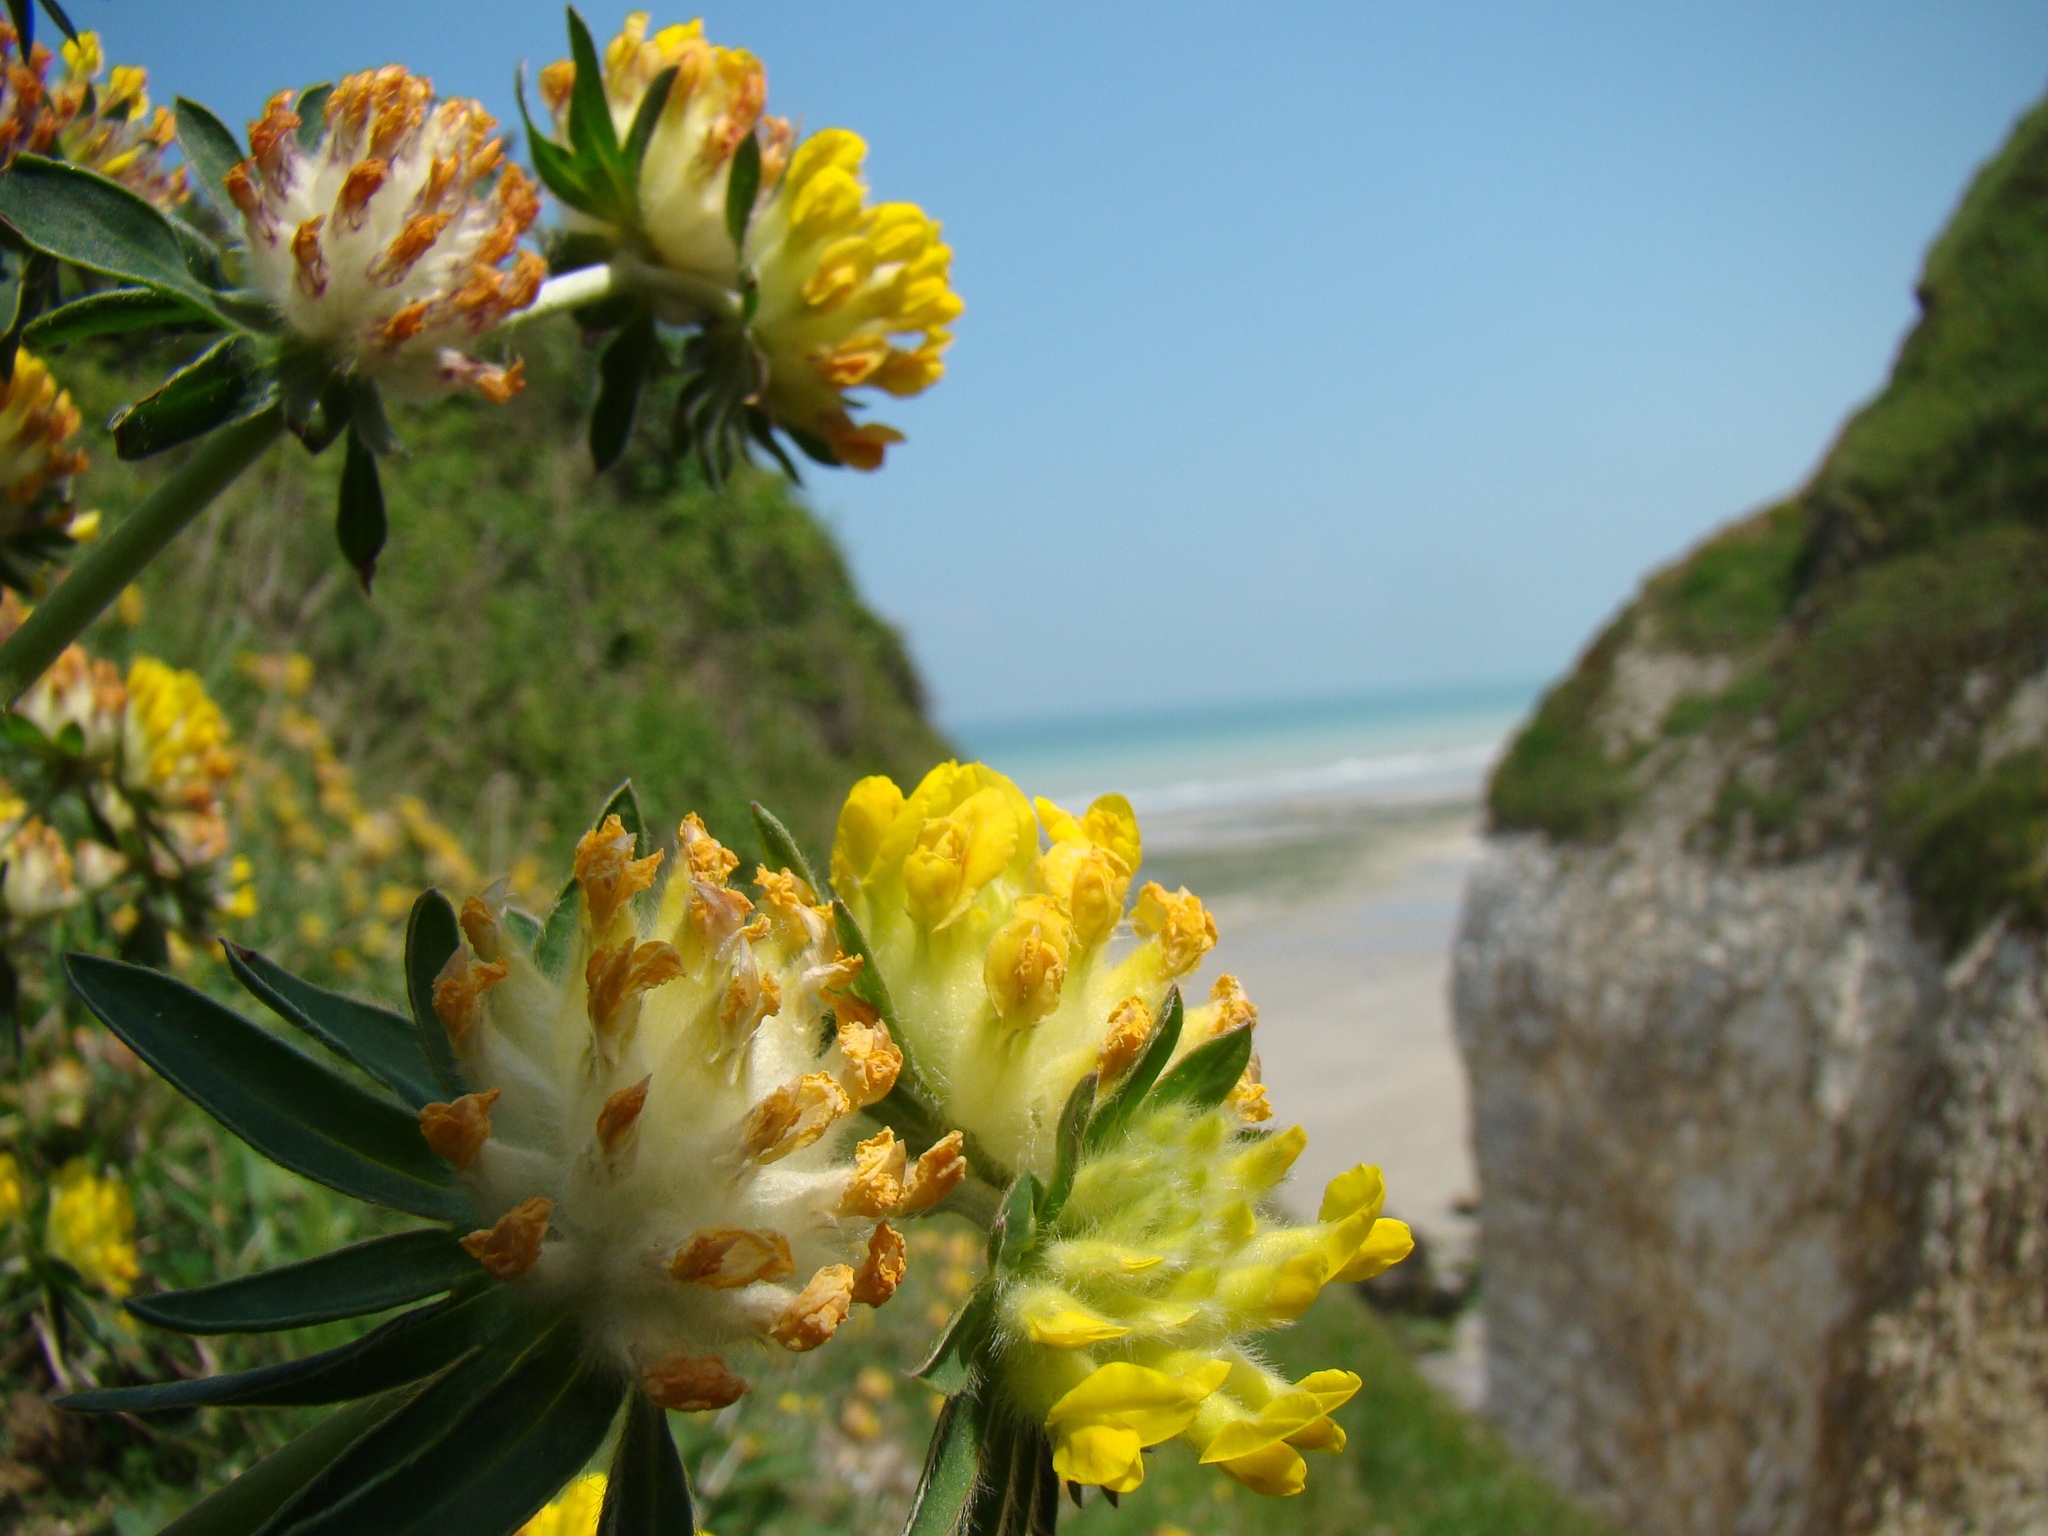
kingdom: Plantae
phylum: Tracheophyta
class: Magnoliopsida
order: Fabales
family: Fabaceae
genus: Anthyllis
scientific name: Anthyllis vulneraria
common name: Kidney vetch
